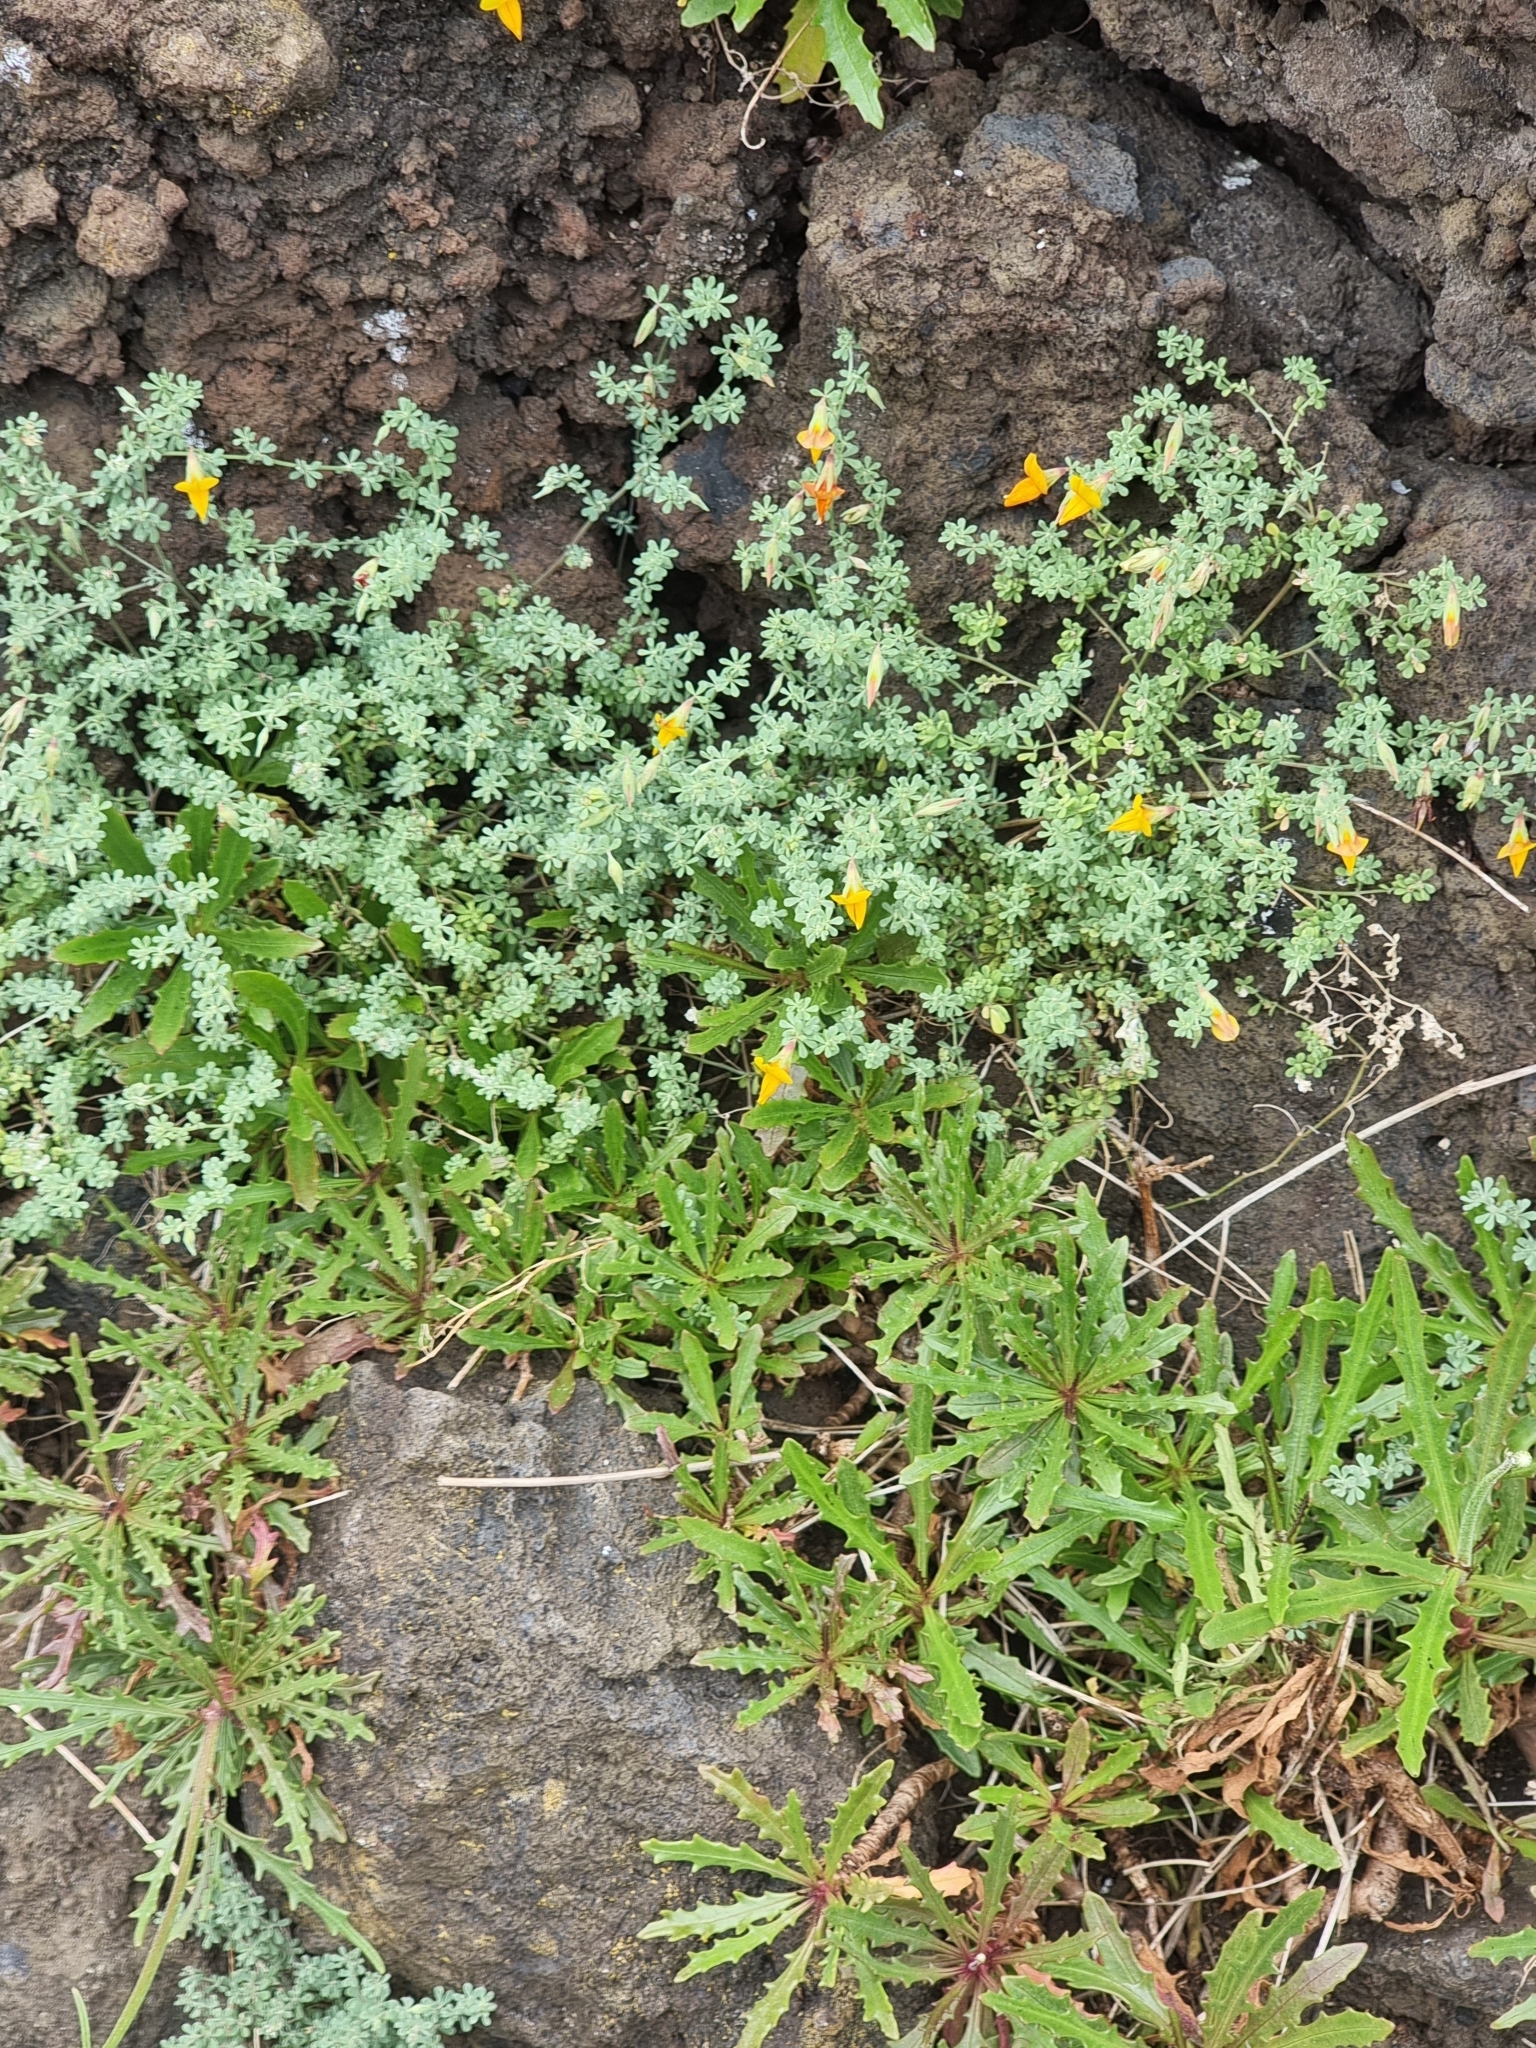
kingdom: Plantae
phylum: Tracheophyta
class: Magnoliopsida
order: Fabales
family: Fabaceae
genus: Lotus
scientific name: Lotus glaucus
